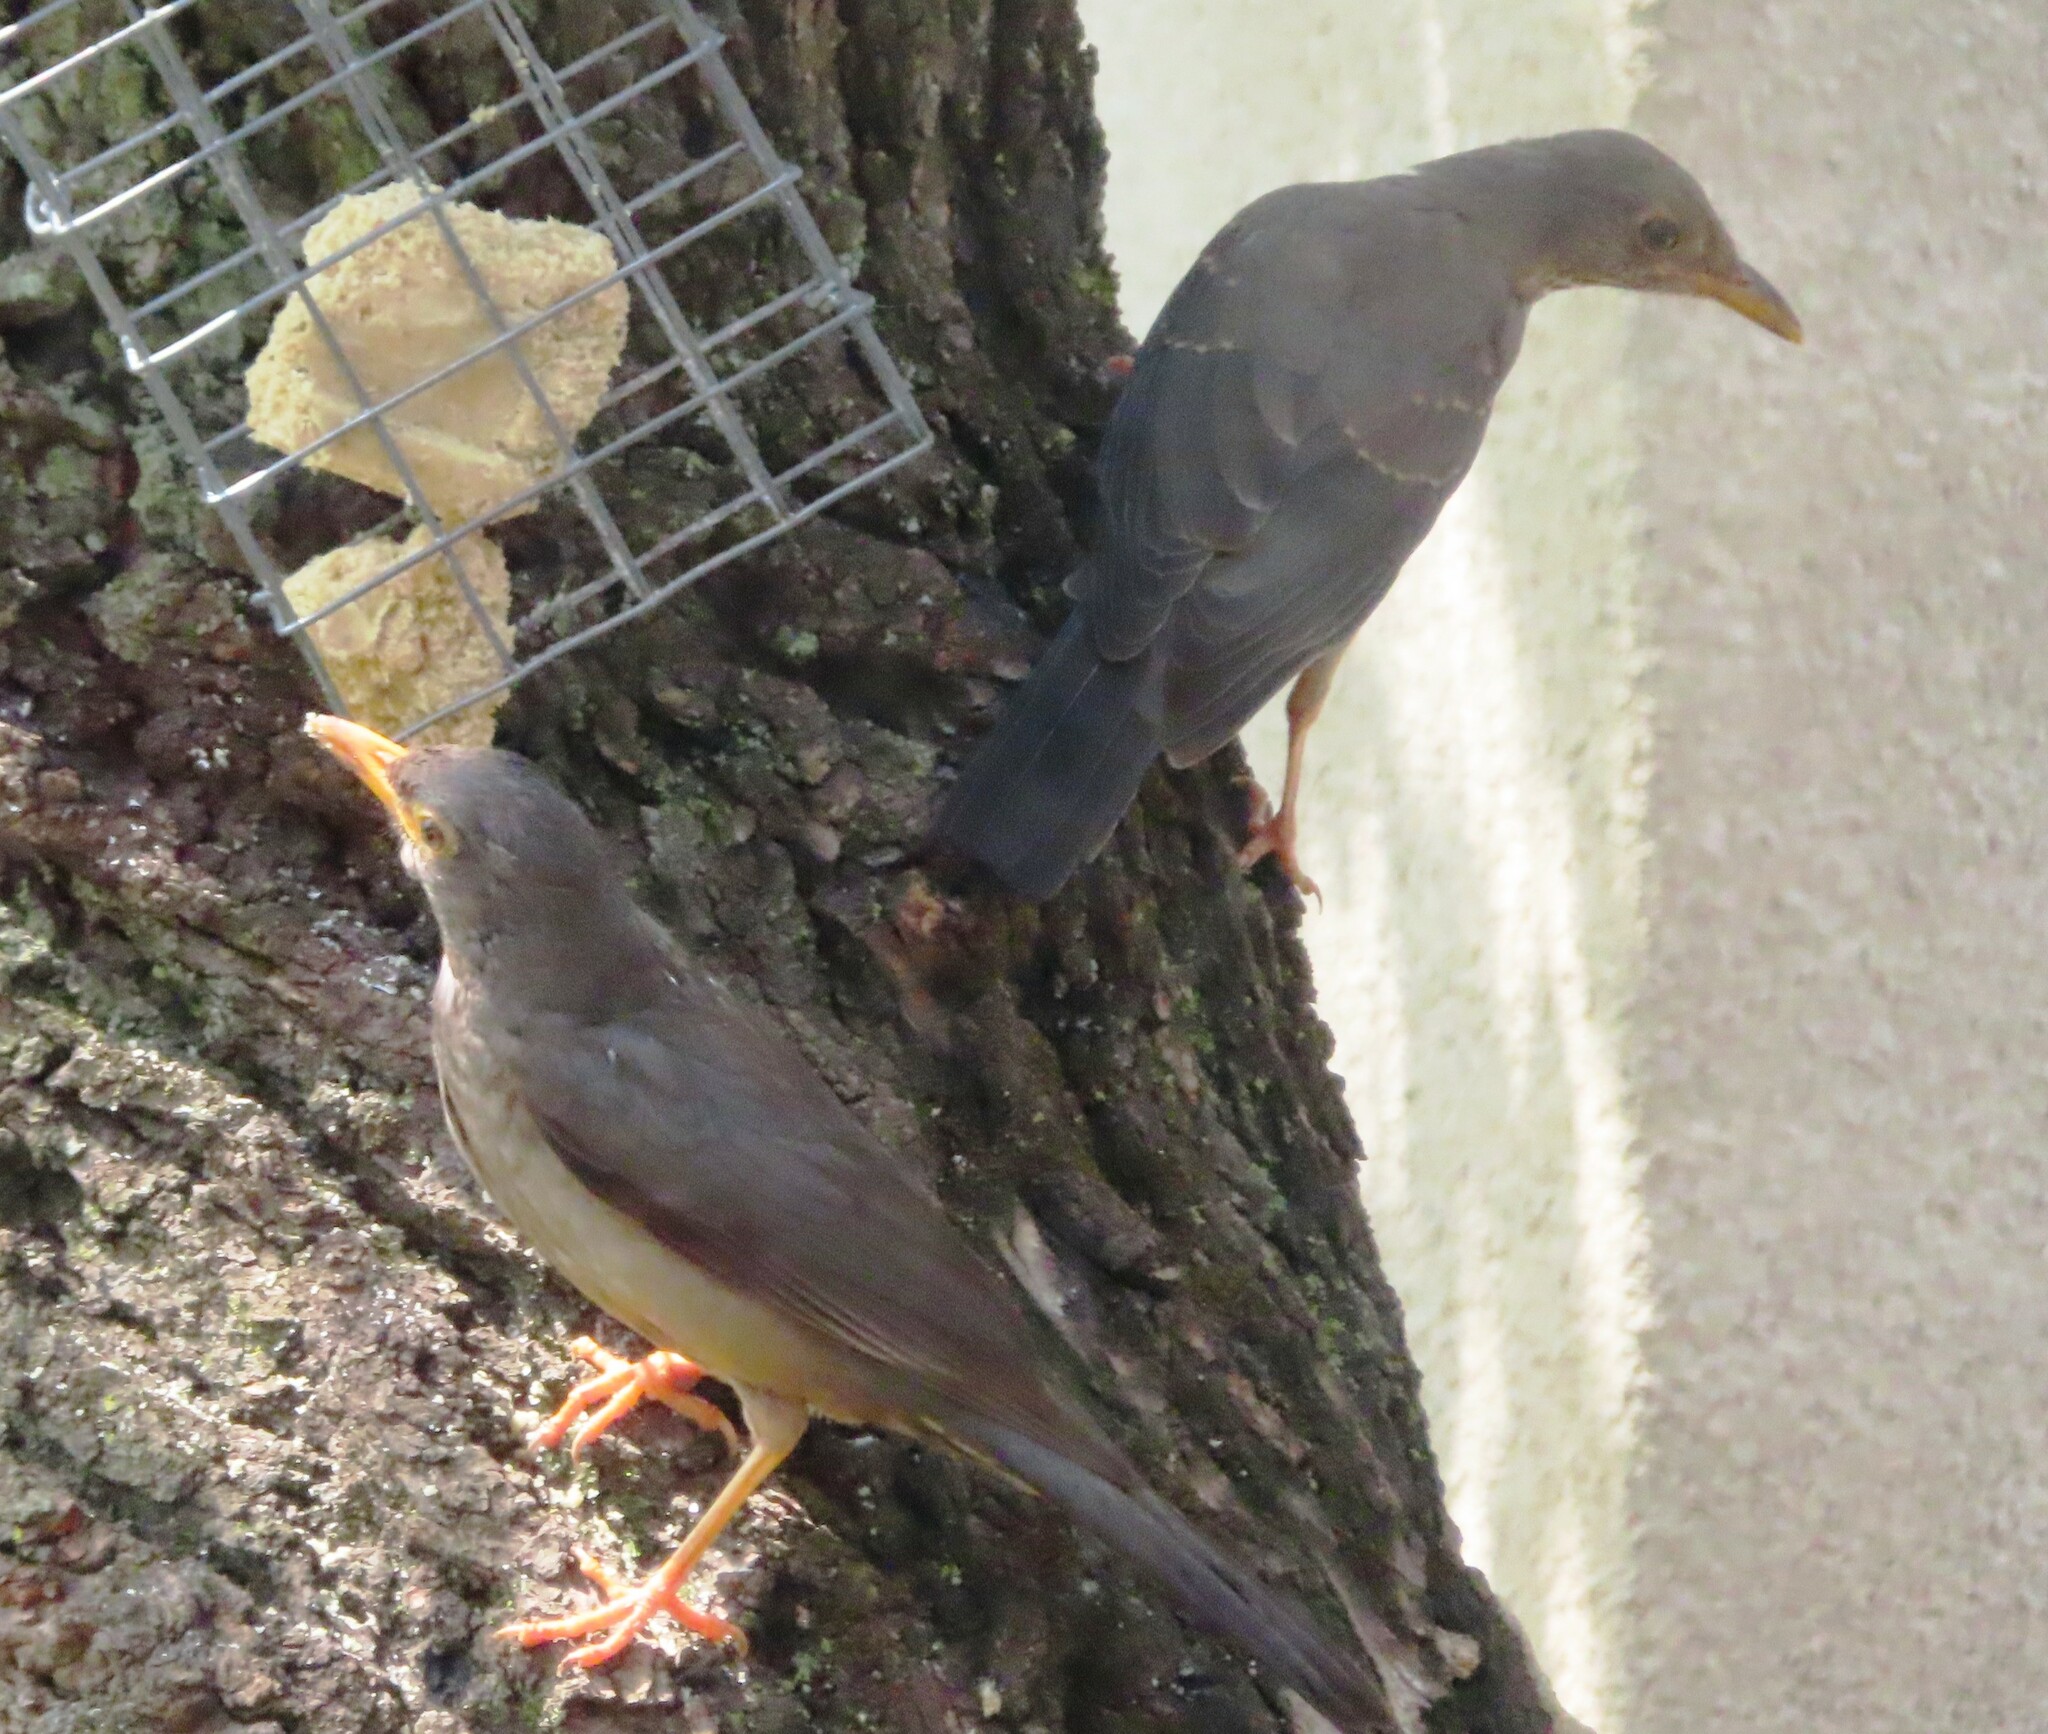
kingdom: Animalia
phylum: Chordata
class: Aves
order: Passeriformes
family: Turdidae
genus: Turdus
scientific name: Turdus smithi
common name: Karoo thrush
